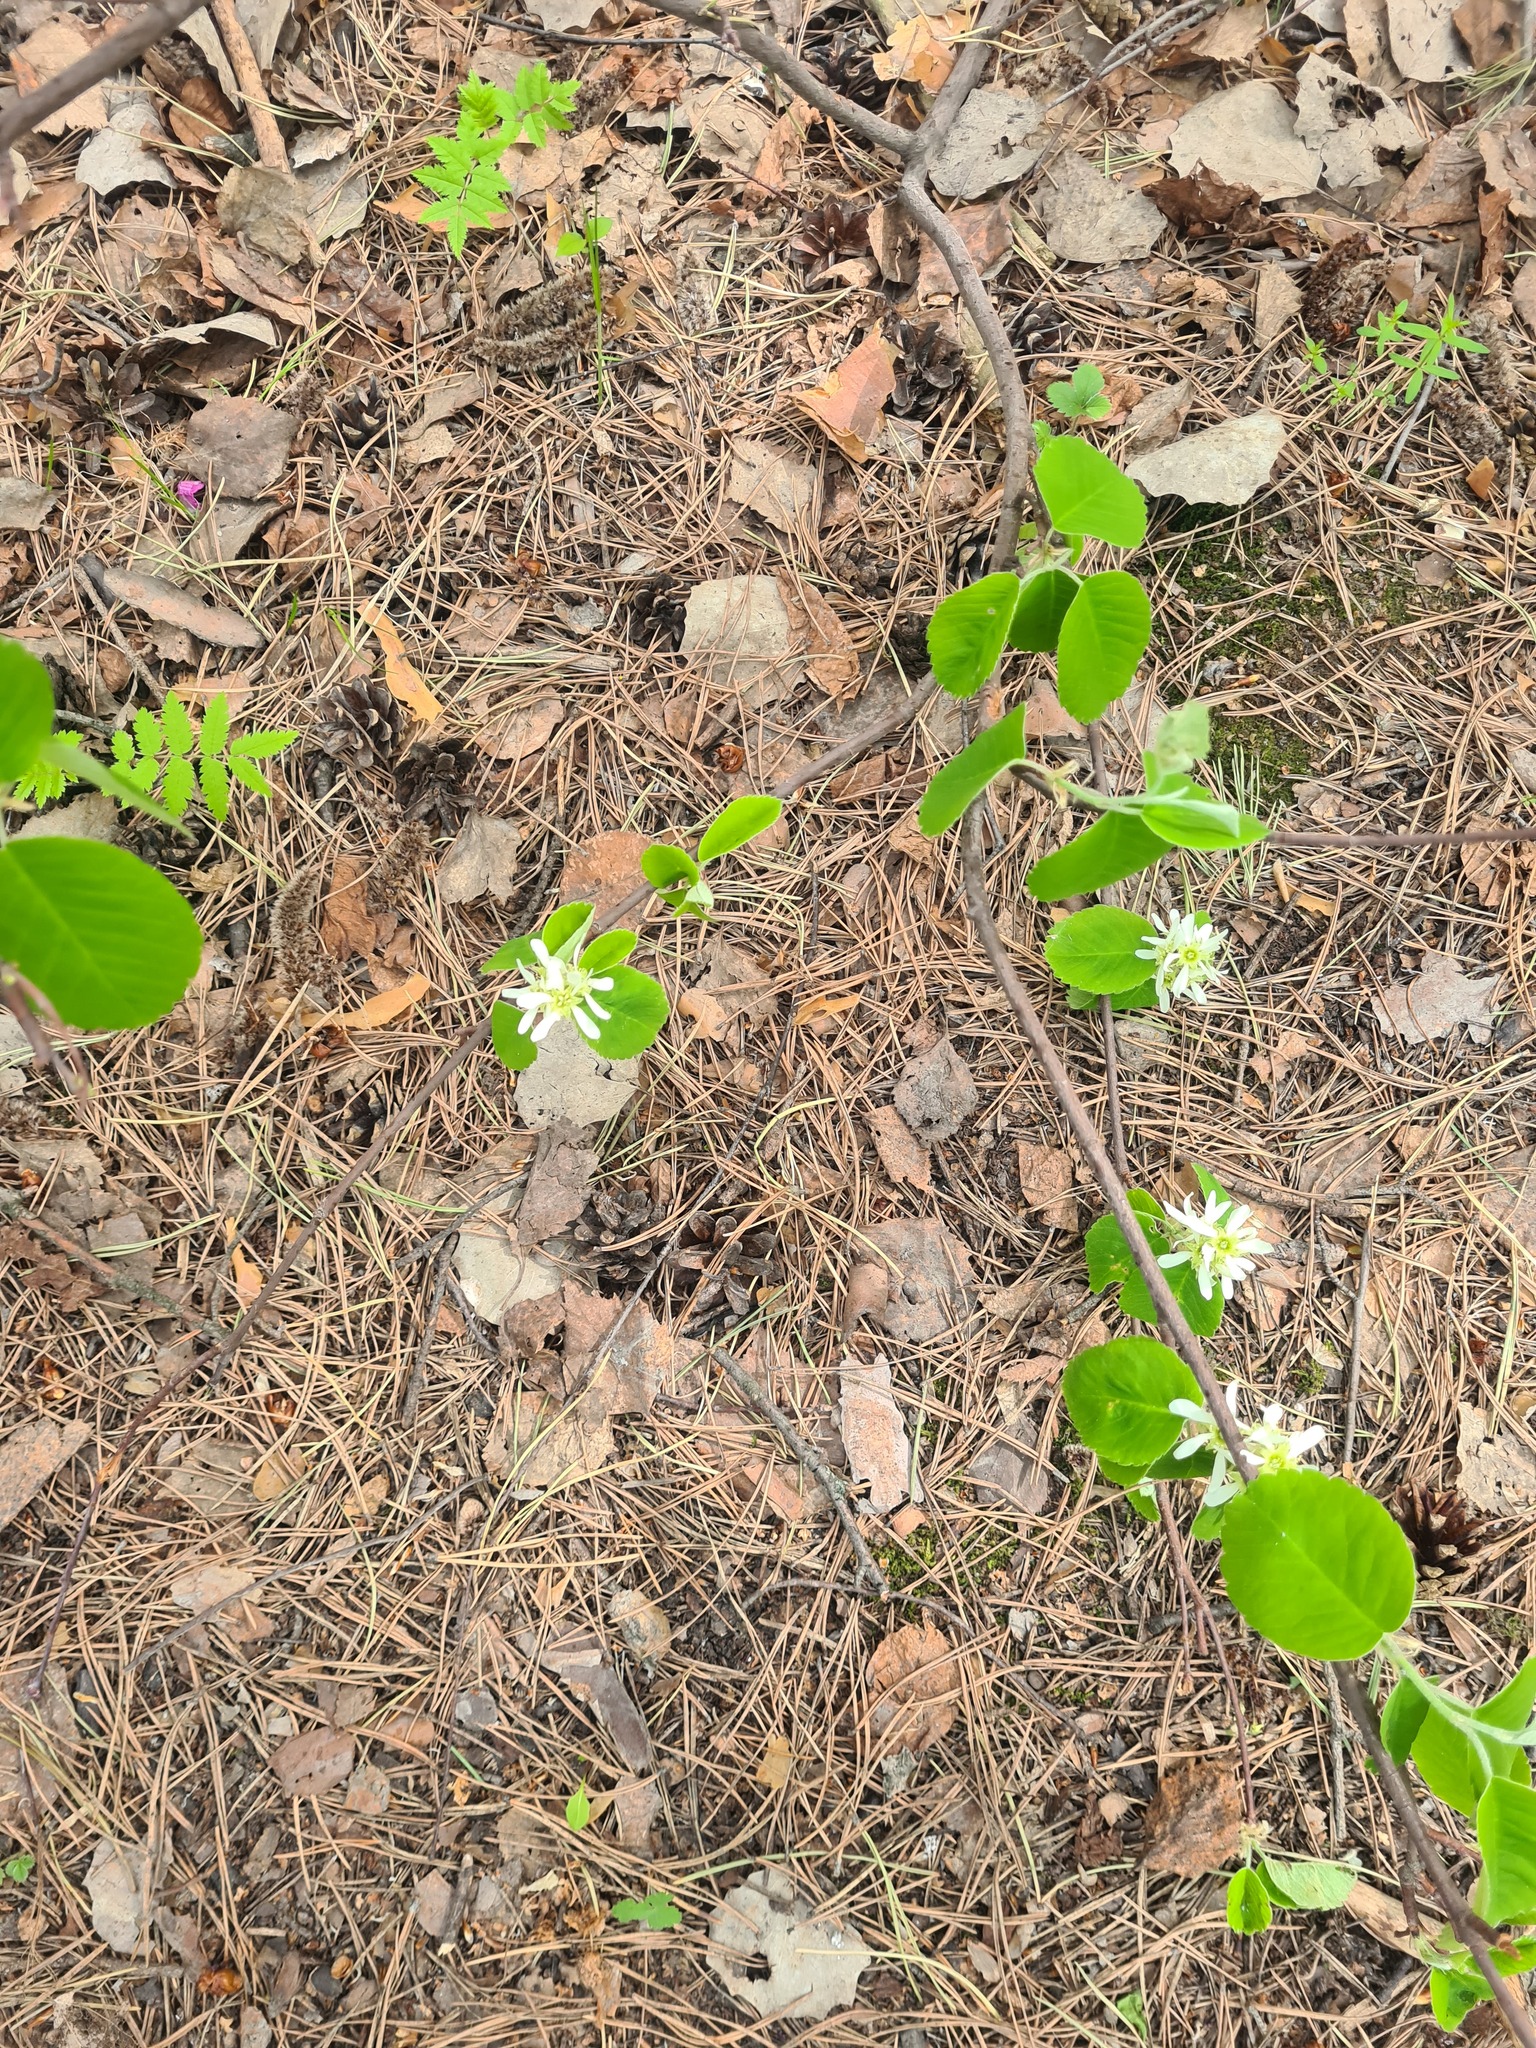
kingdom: Plantae
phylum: Tracheophyta
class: Magnoliopsida
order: Rosales
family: Rosaceae
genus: Amelanchier
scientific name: Amelanchier alnifolia
